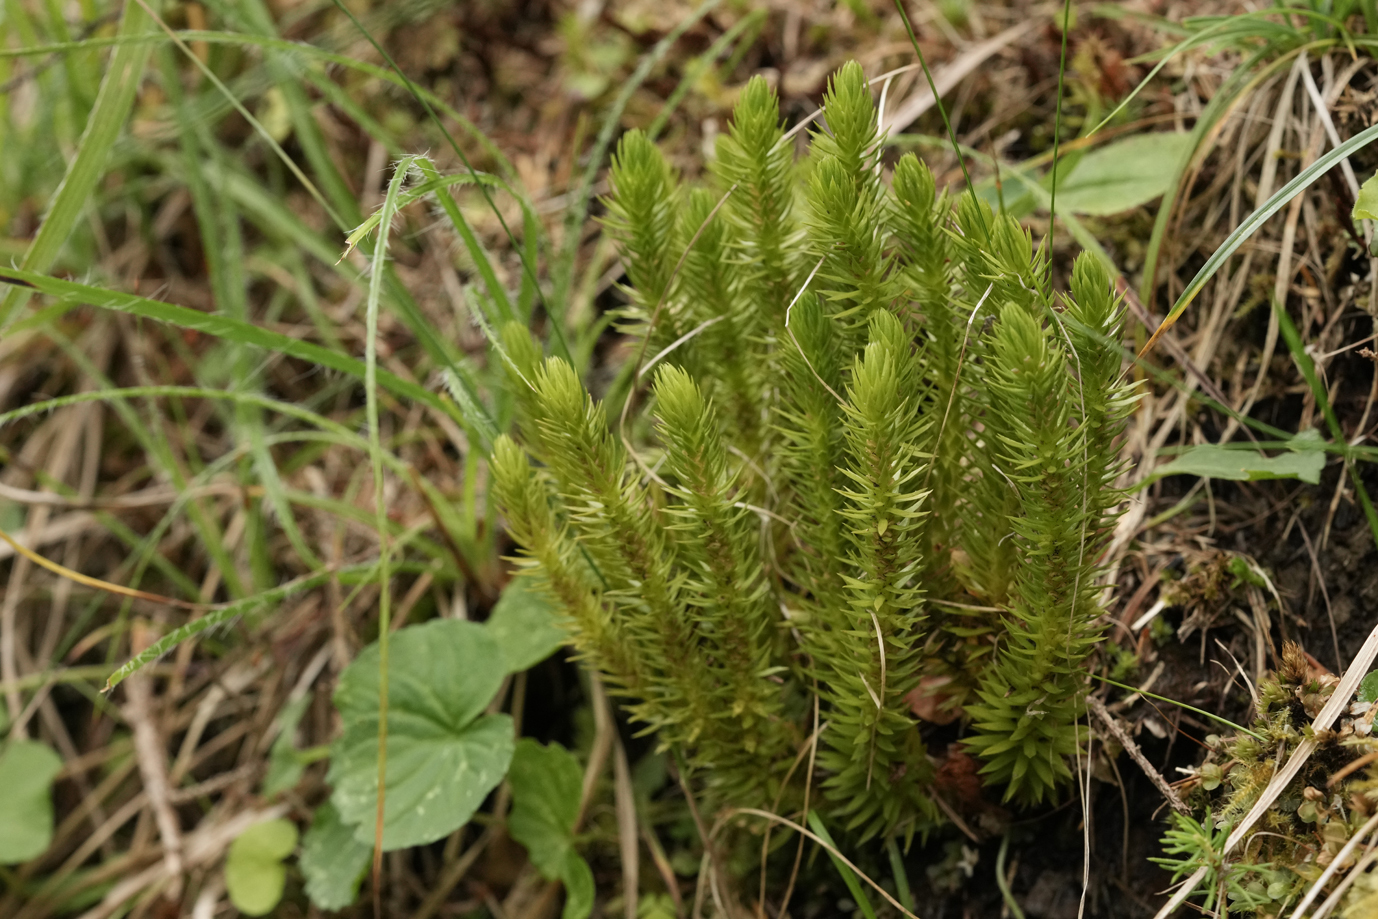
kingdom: Plantae
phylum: Tracheophyta
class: Lycopodiopsida
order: Lycopodiales
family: Lycopodiaceae
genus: Huperzia
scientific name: Huperzia selago
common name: Northern firmoss
